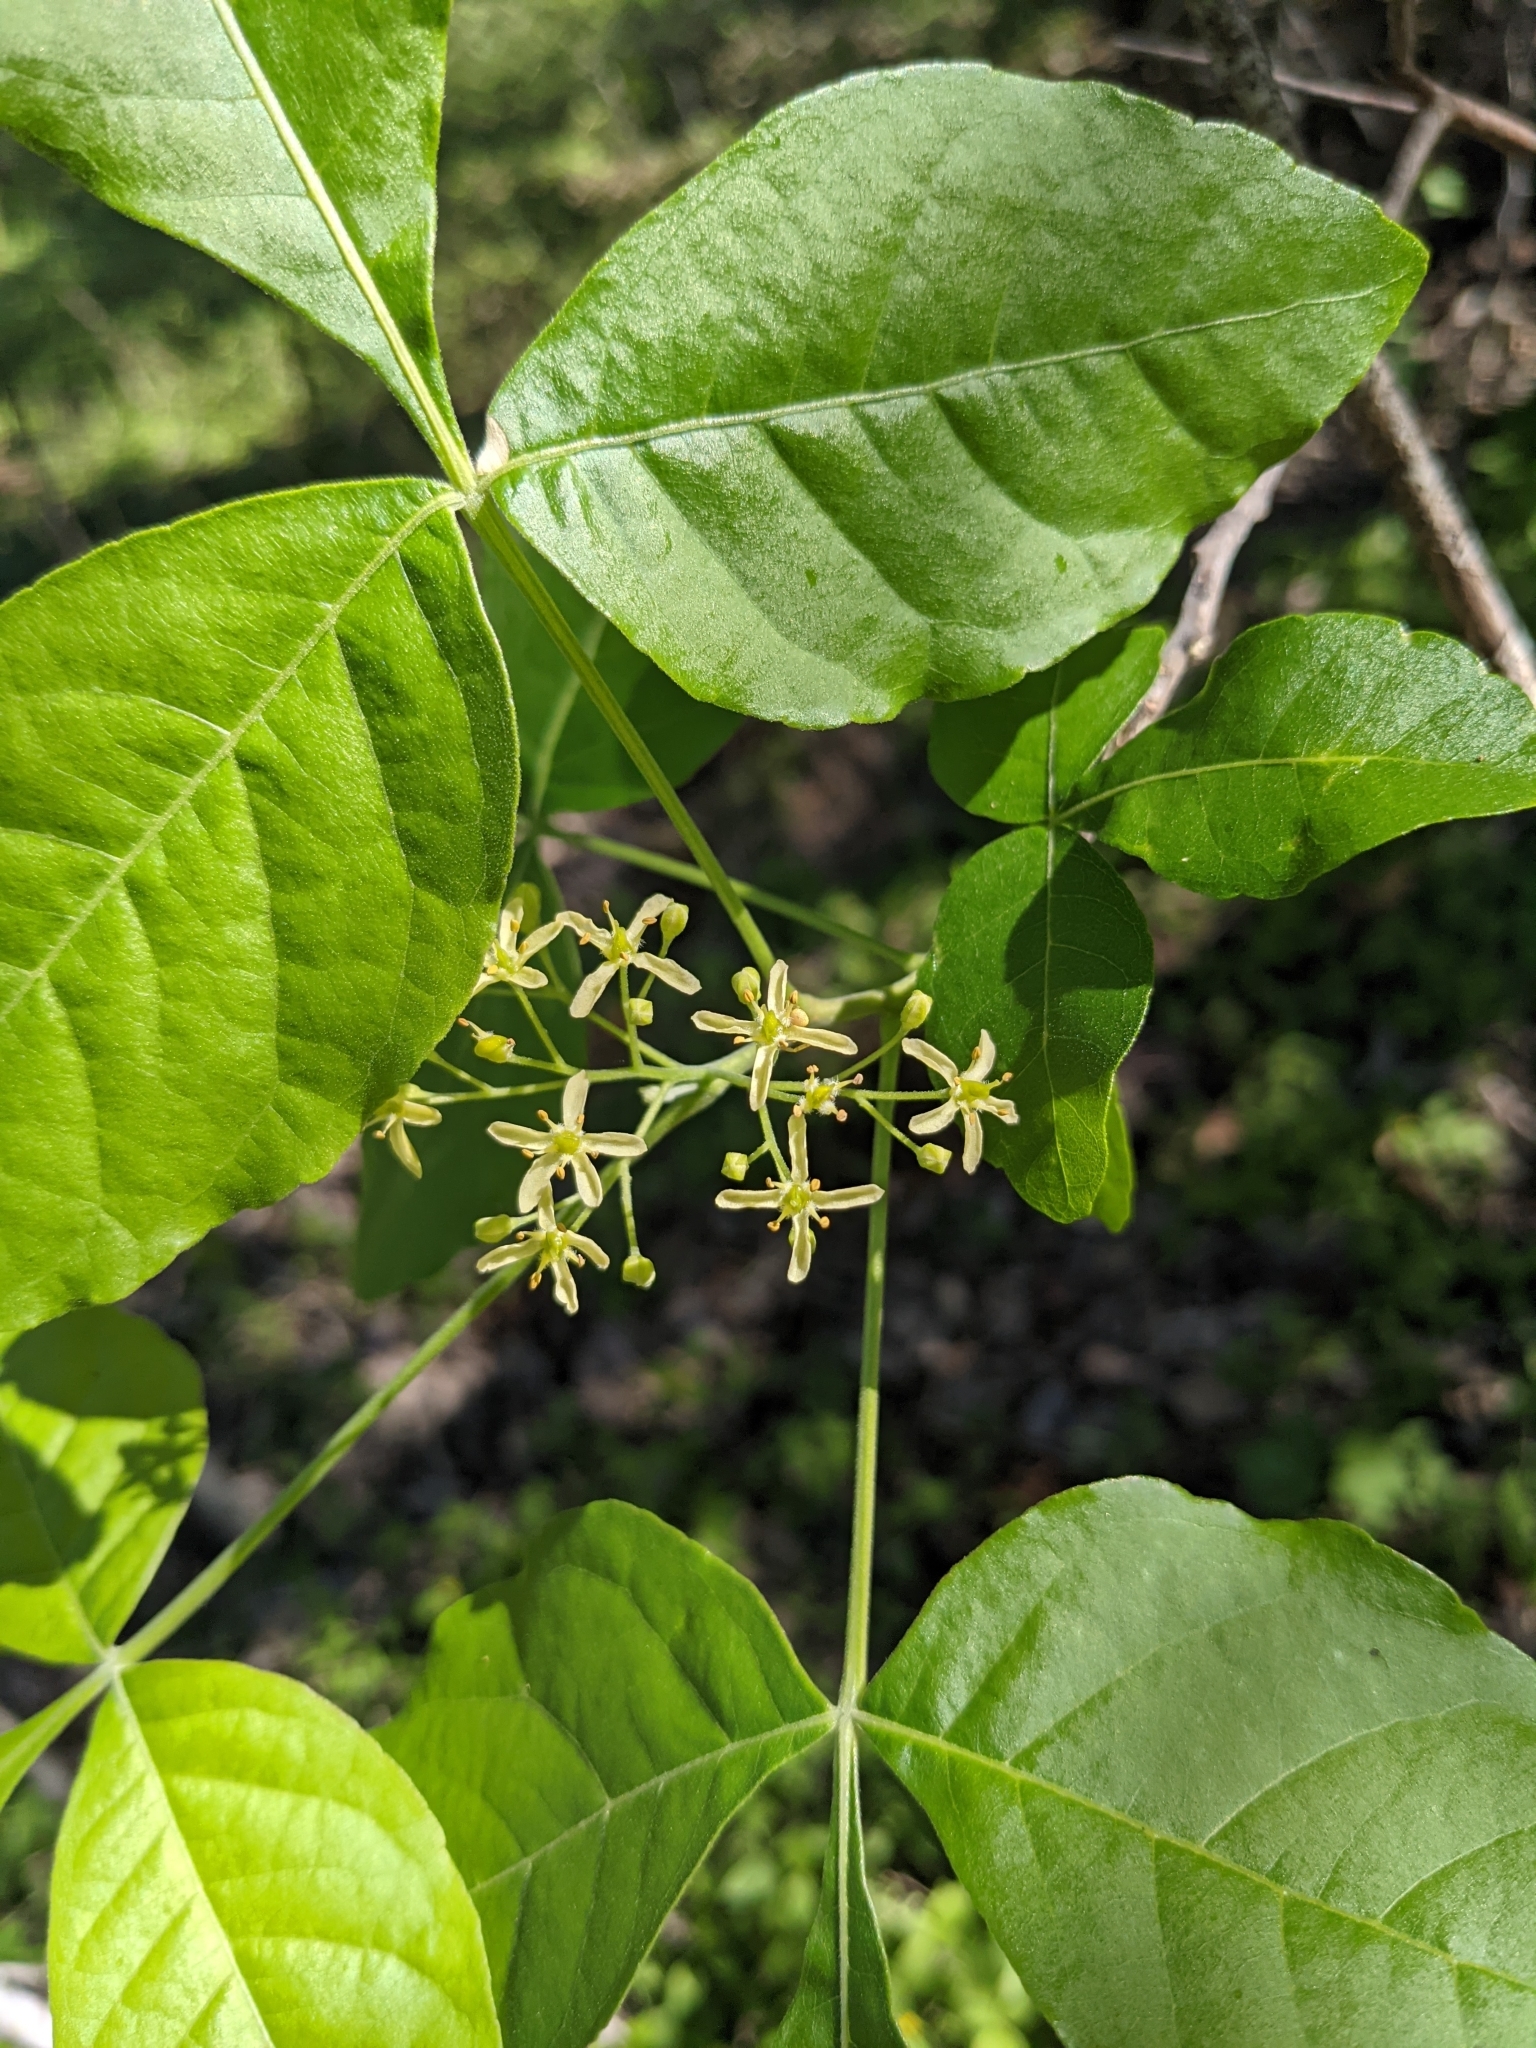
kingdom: Plantae
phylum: Tracheophyta
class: Magnoliopsida
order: Sapindales
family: Rutaceae
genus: Ptelea
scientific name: Ptelea trifoliata
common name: Common hop-tree
